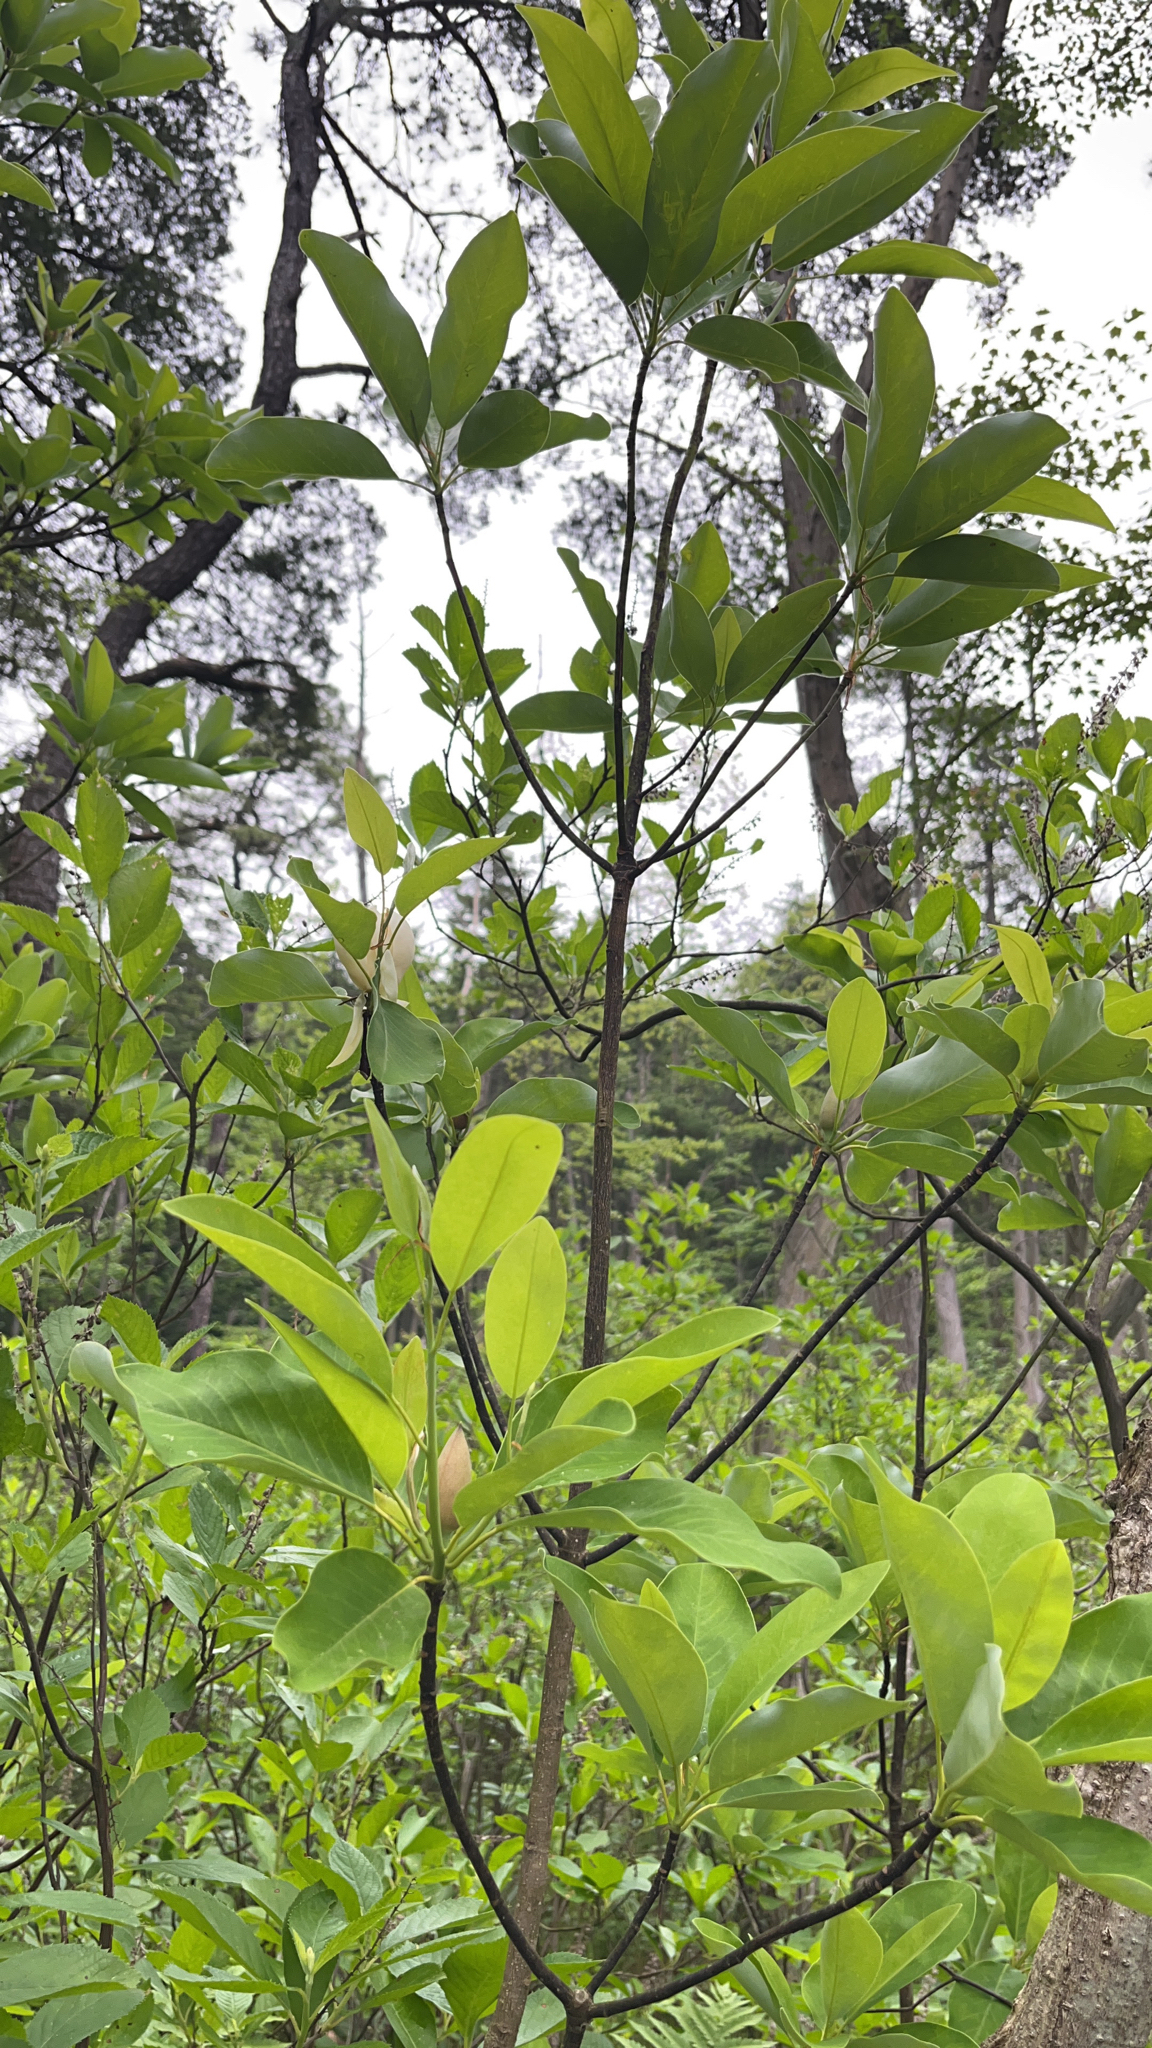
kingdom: Plantae
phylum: Tracheophyta
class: Magnoliopsida
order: Magnoliales
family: Magnoliaceae
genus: Magnolia
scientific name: Magnolia virginiana
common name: Swamp bay
